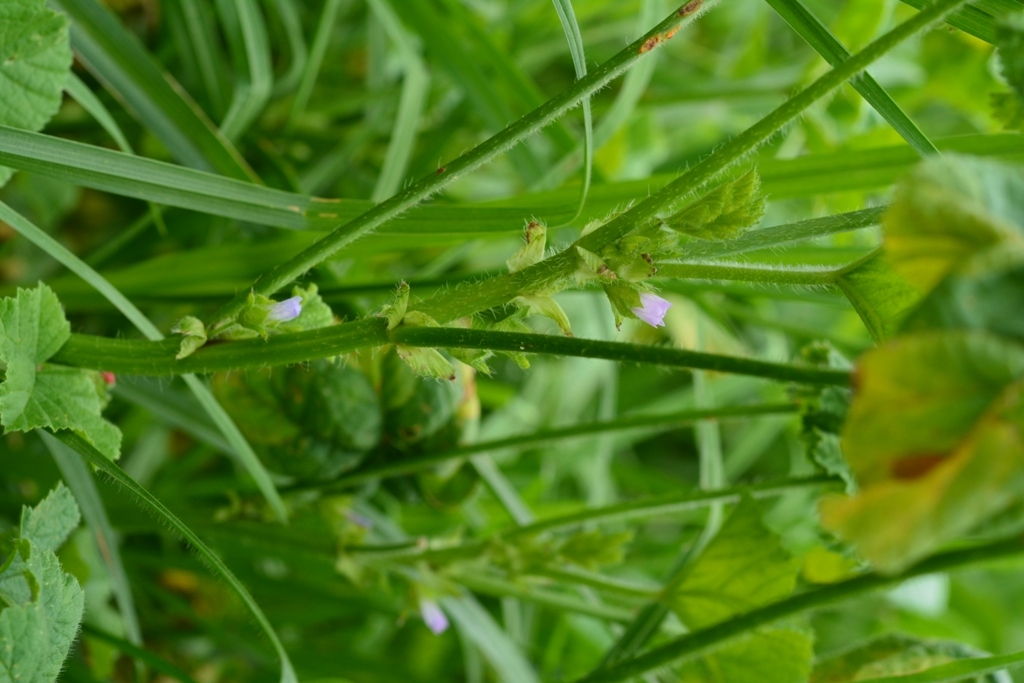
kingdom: Plantae
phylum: Tracheophyta
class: Magnoliopsida
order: Malvales
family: Malvaceae
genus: Malva
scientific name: Malva parviflora
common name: Least mallow
